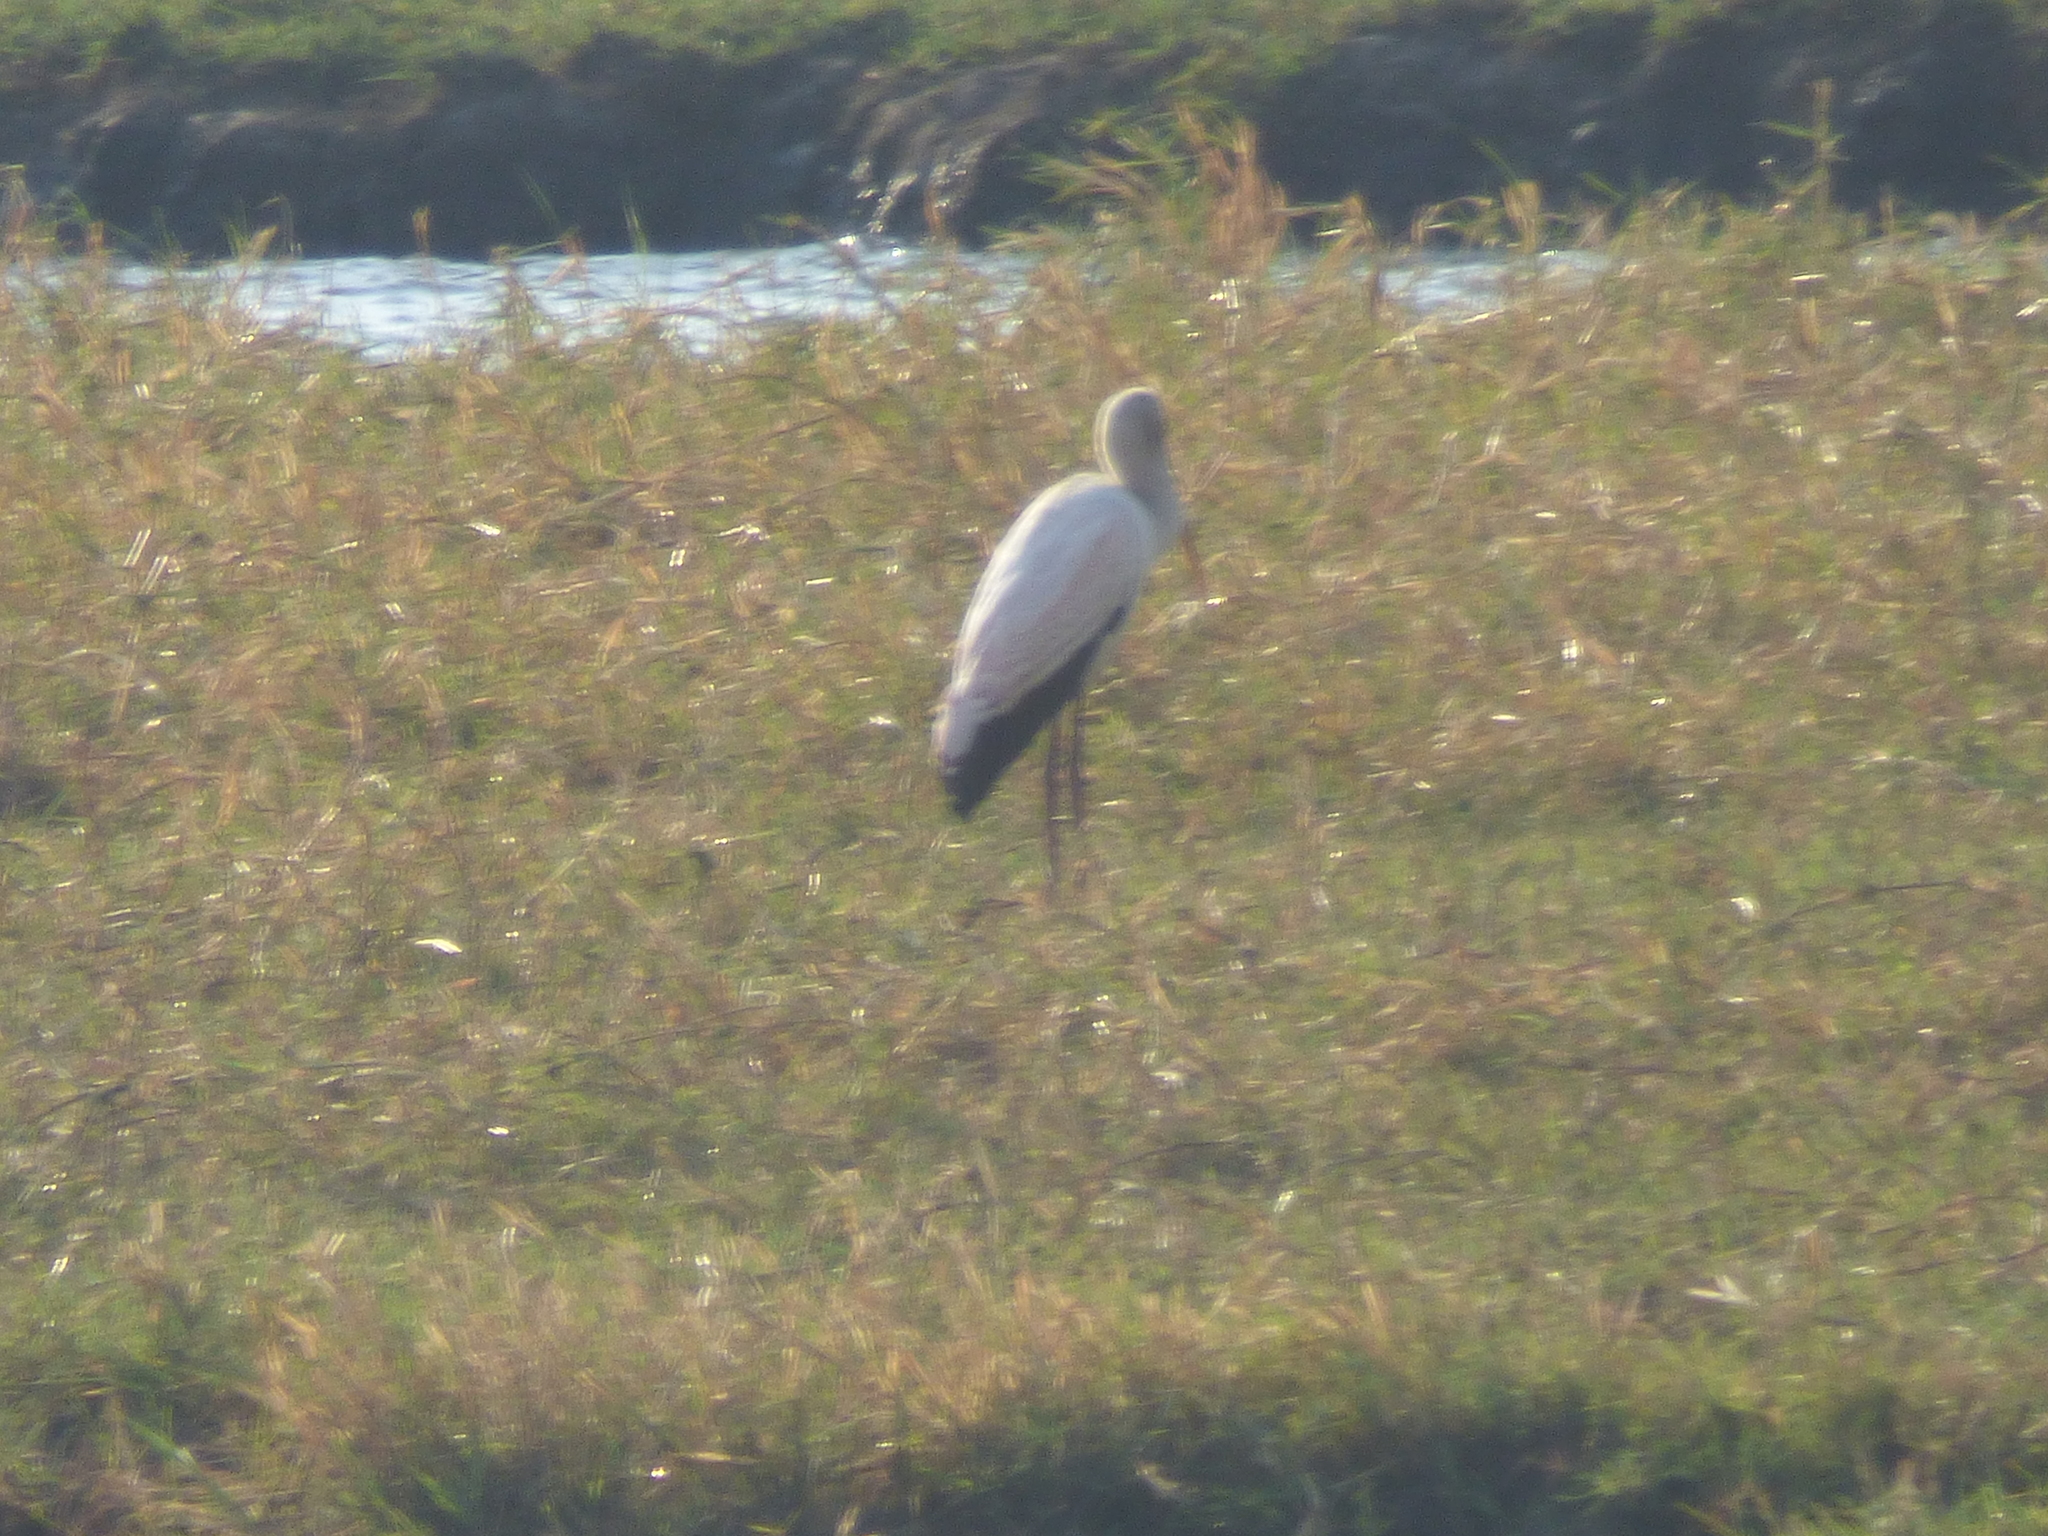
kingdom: Animalia
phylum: Chordata
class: Aves
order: Ciconiiformes
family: Ciconiidae
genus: Mycteria
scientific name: Mycteria ibis
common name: Yellow-billed stork
